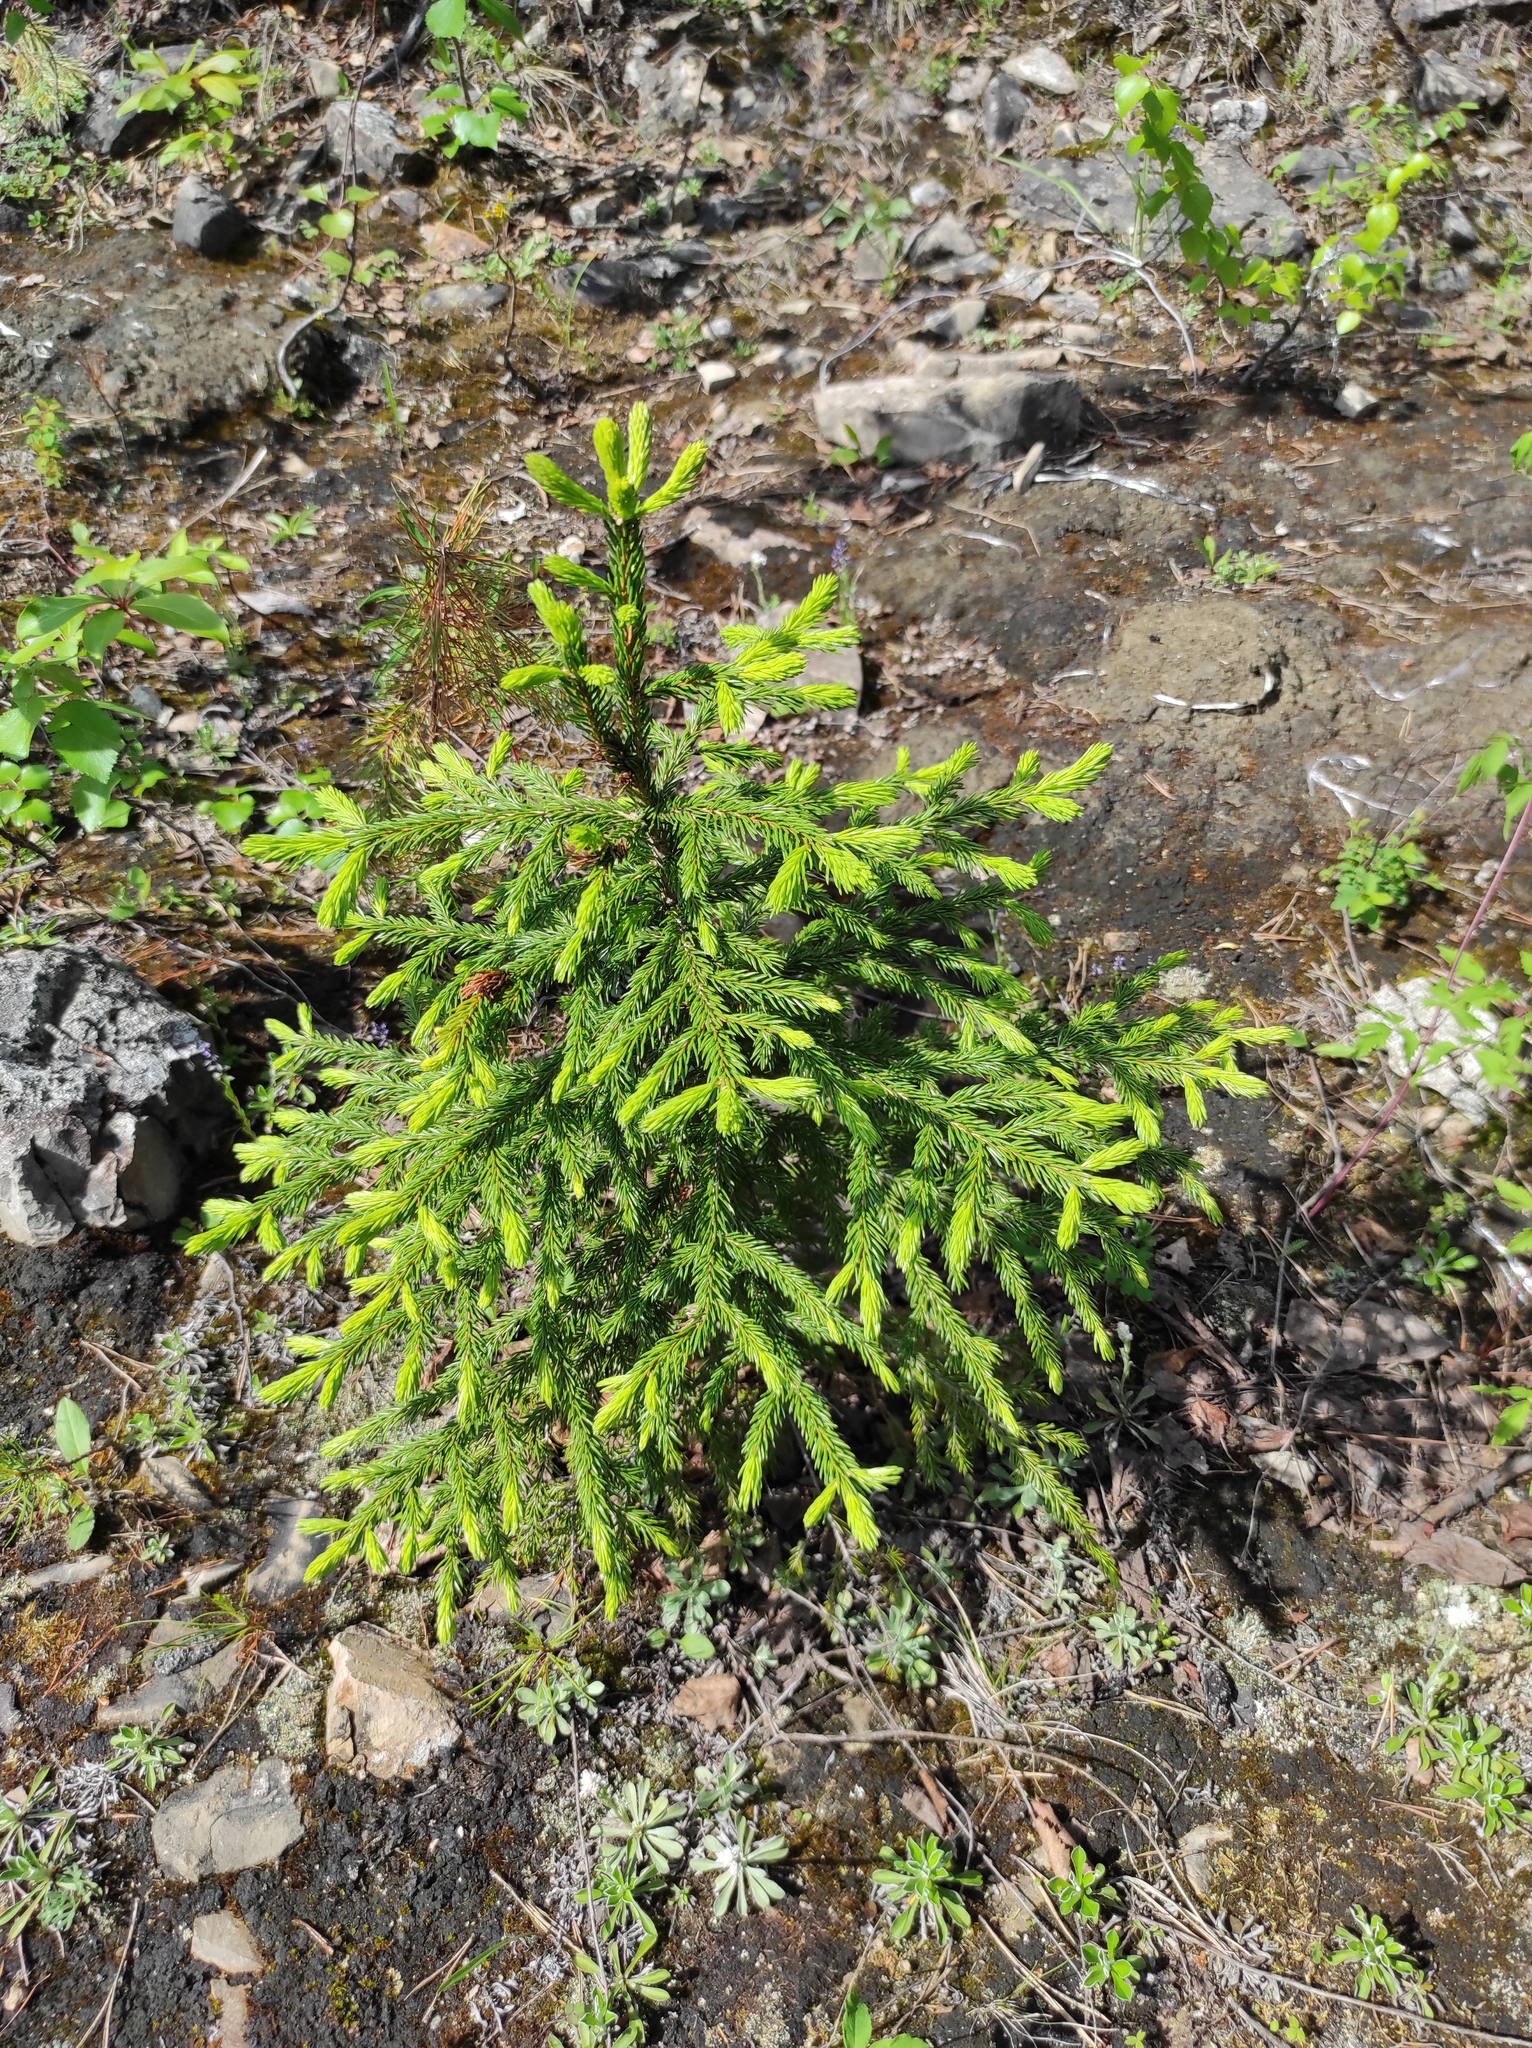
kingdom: Plantae
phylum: Tracheophyta
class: Pinopsida
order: Pinales
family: Pinaceae
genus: Picea
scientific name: Picea obovata
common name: Siberian spruce
